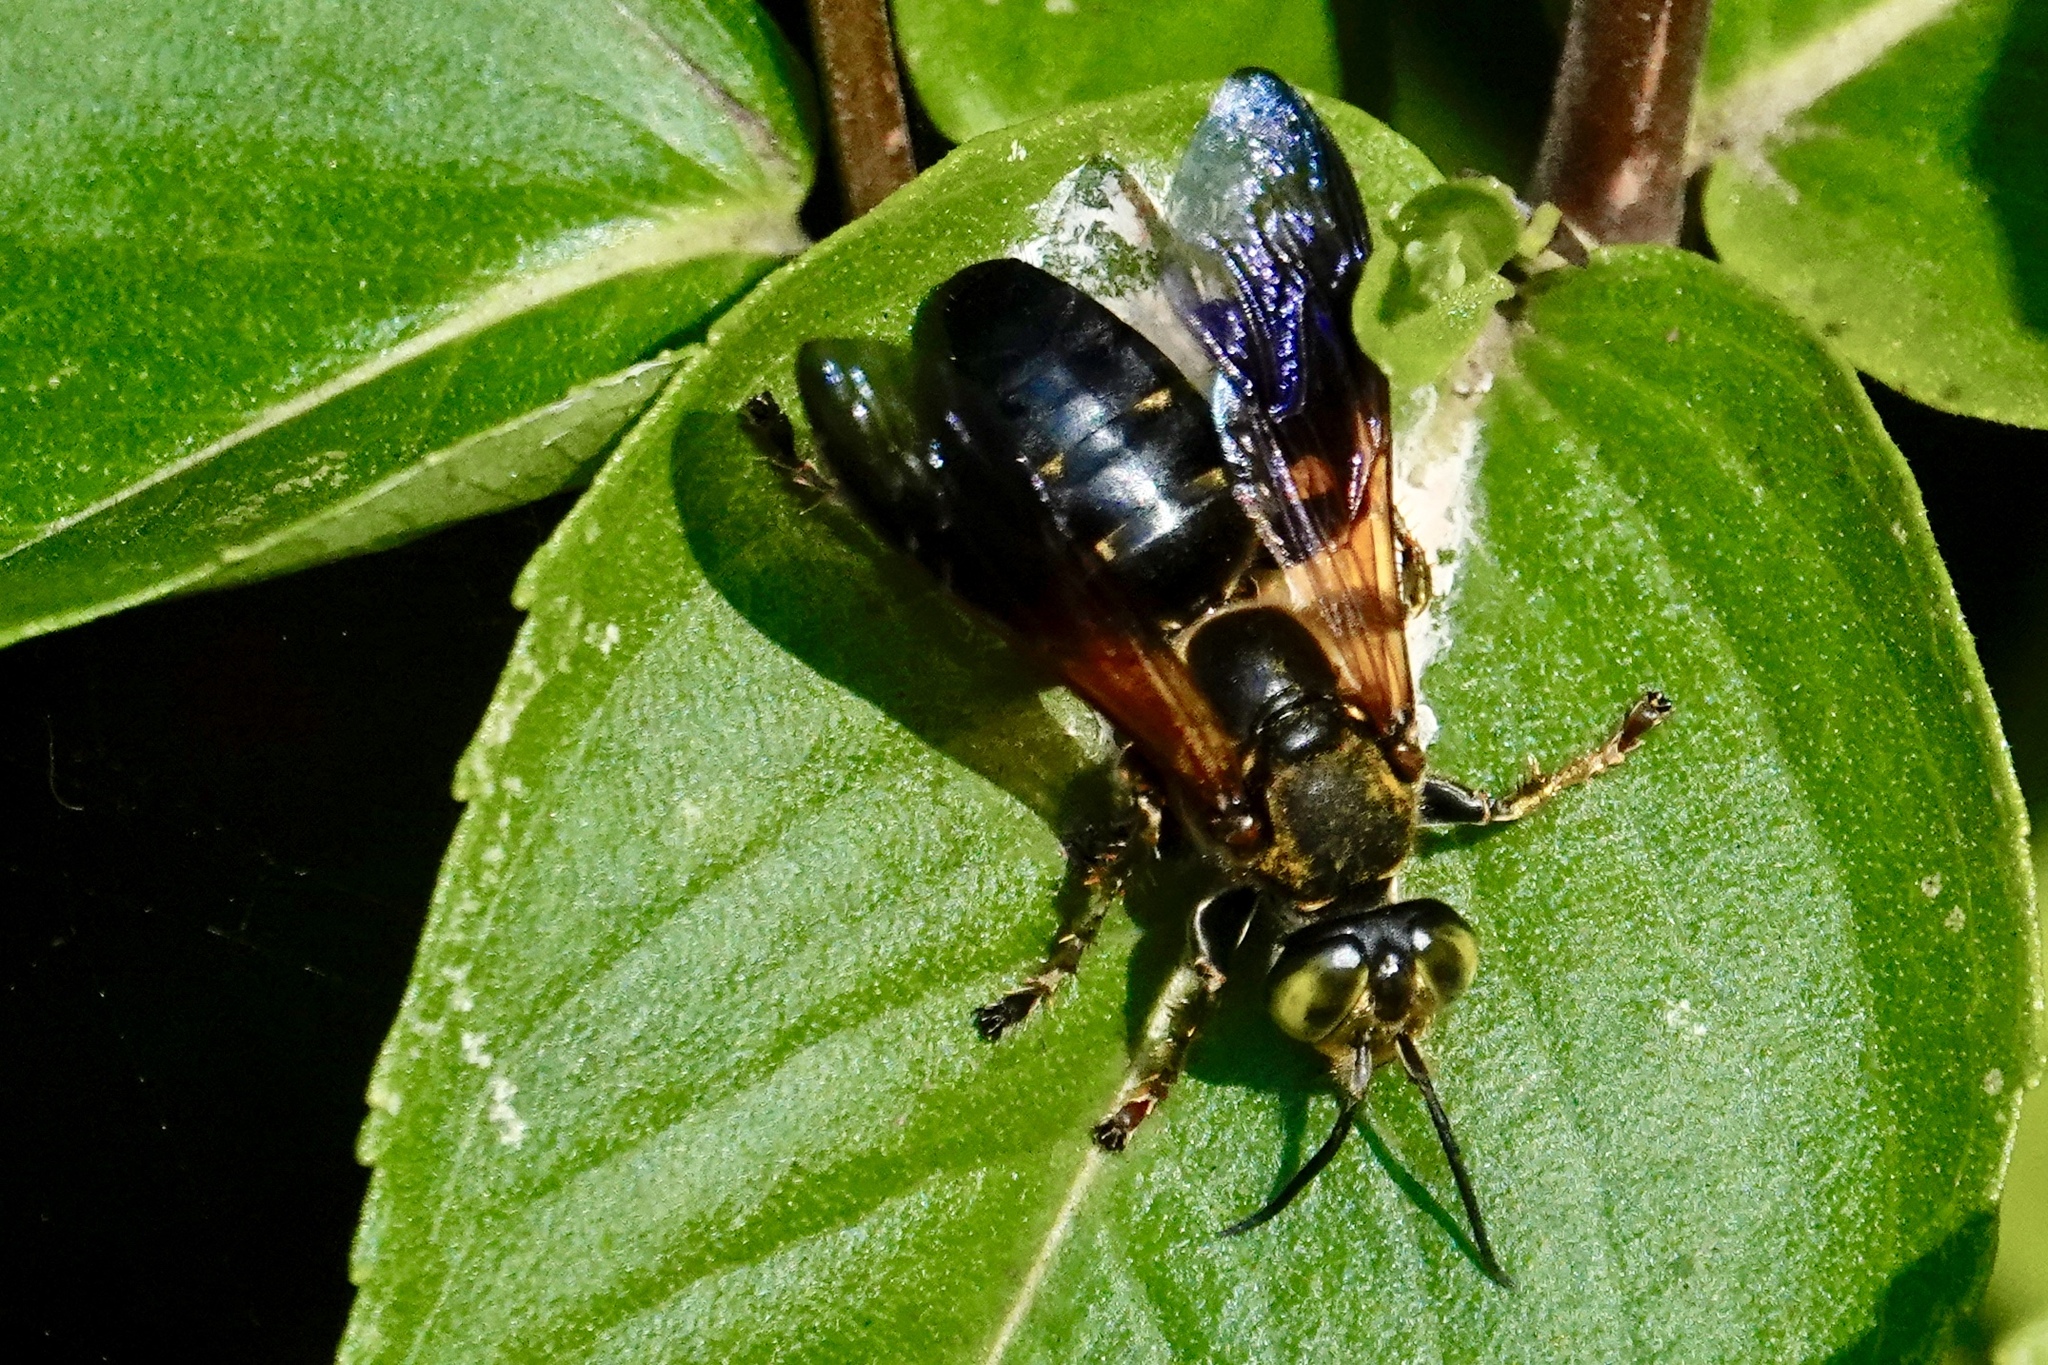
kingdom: Animalia
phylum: Arthropoda
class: Insecta
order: Hymenoptera
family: Crabronidae
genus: Tachytes
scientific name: Tachytes guatemalensis
